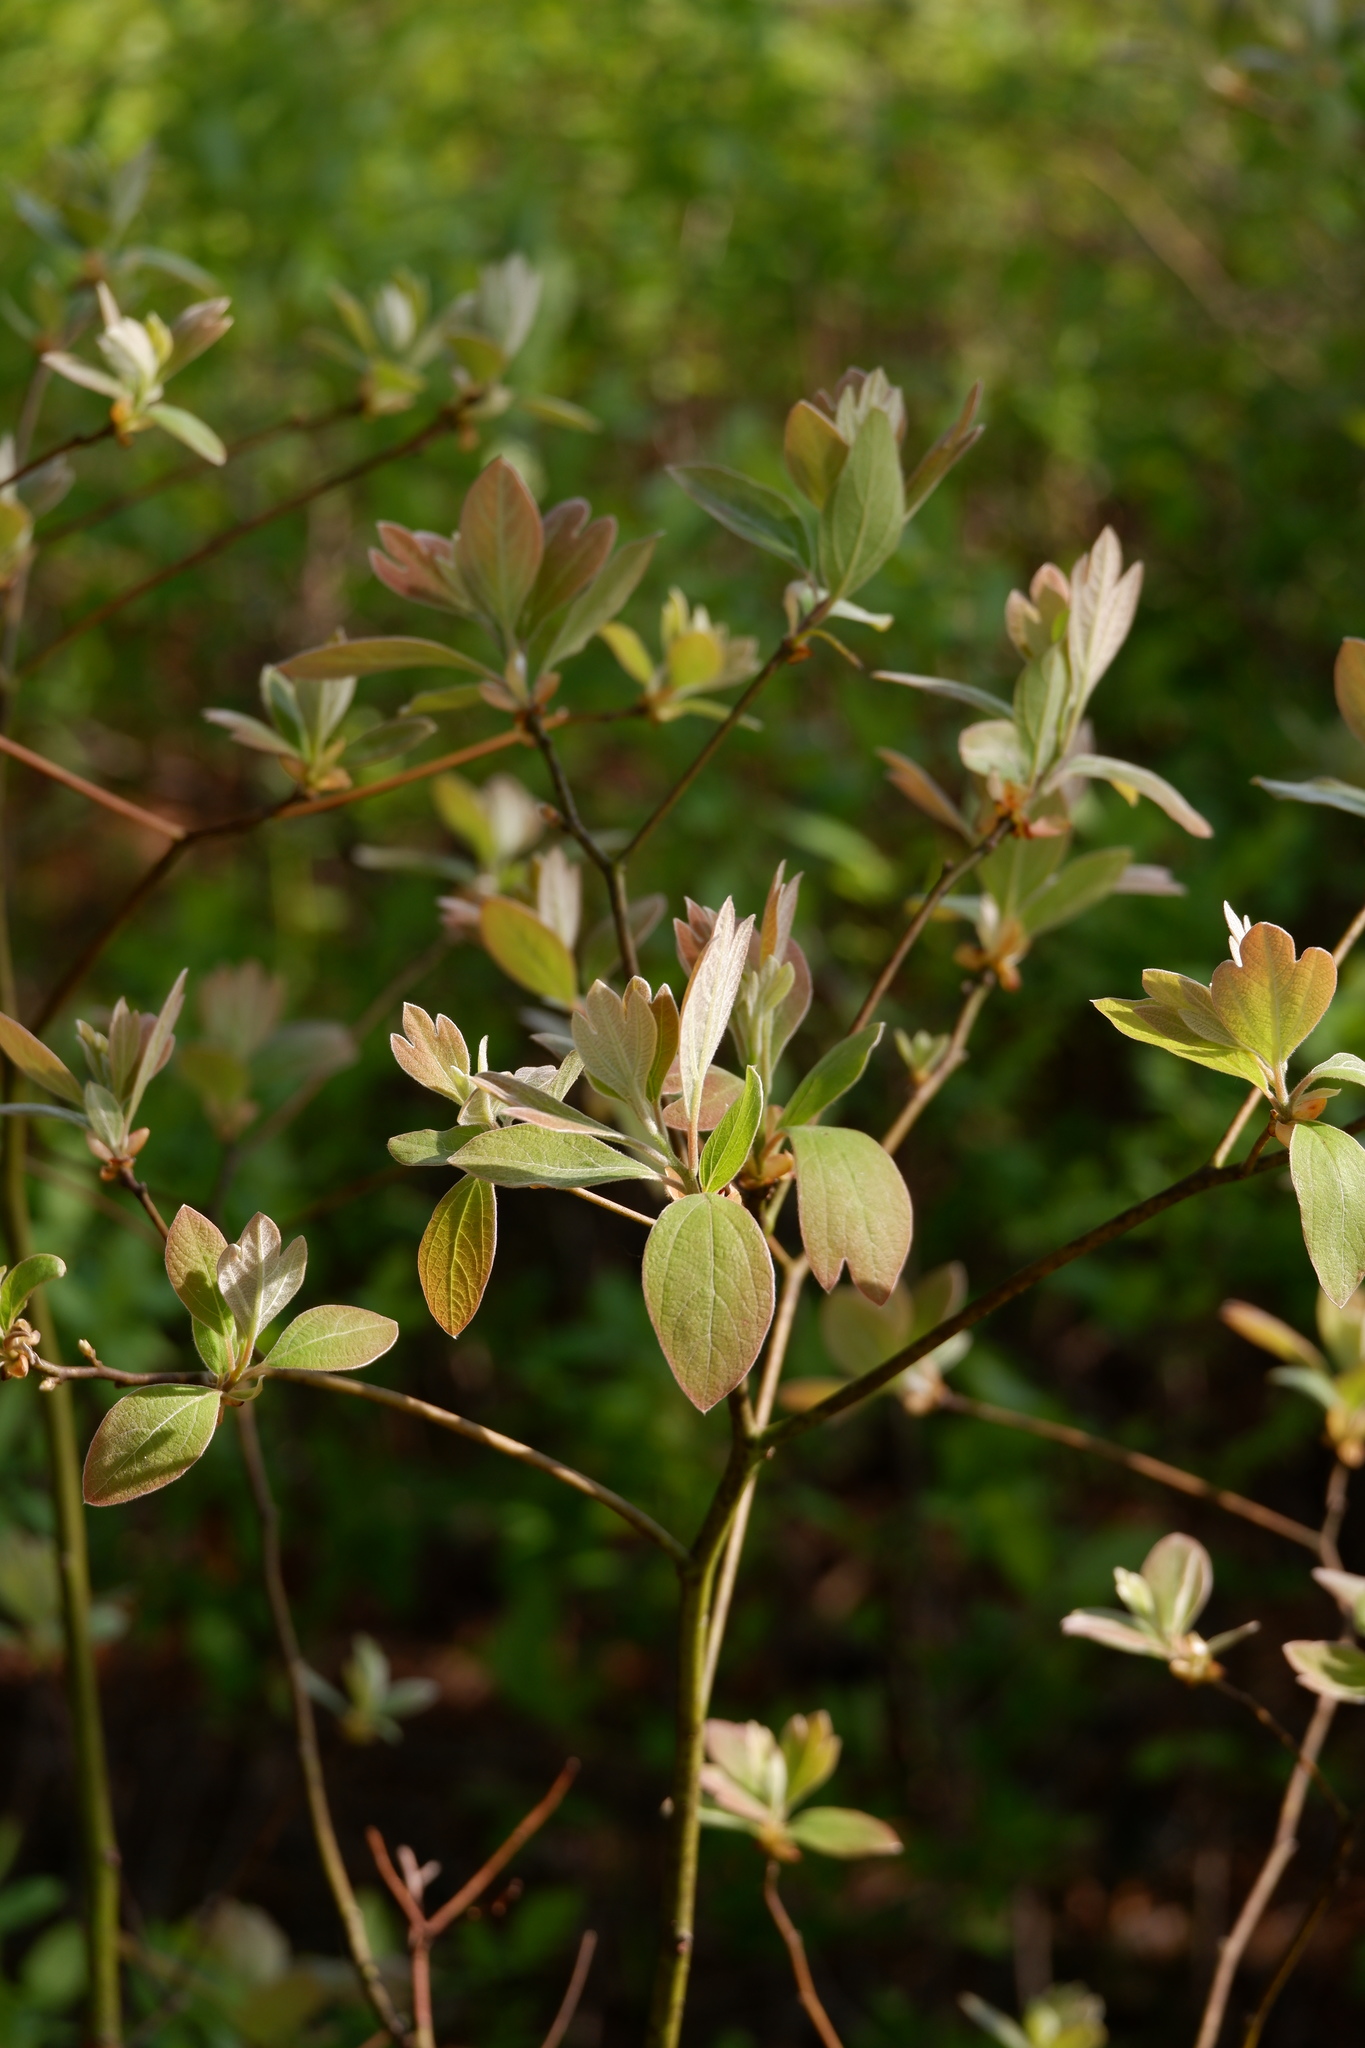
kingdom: Plantae
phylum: Tracheophyta
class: Magnoliopsida
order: Laurales
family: Lauraceae
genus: Sassafras
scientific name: Sassafras albidum
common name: Sassafras
